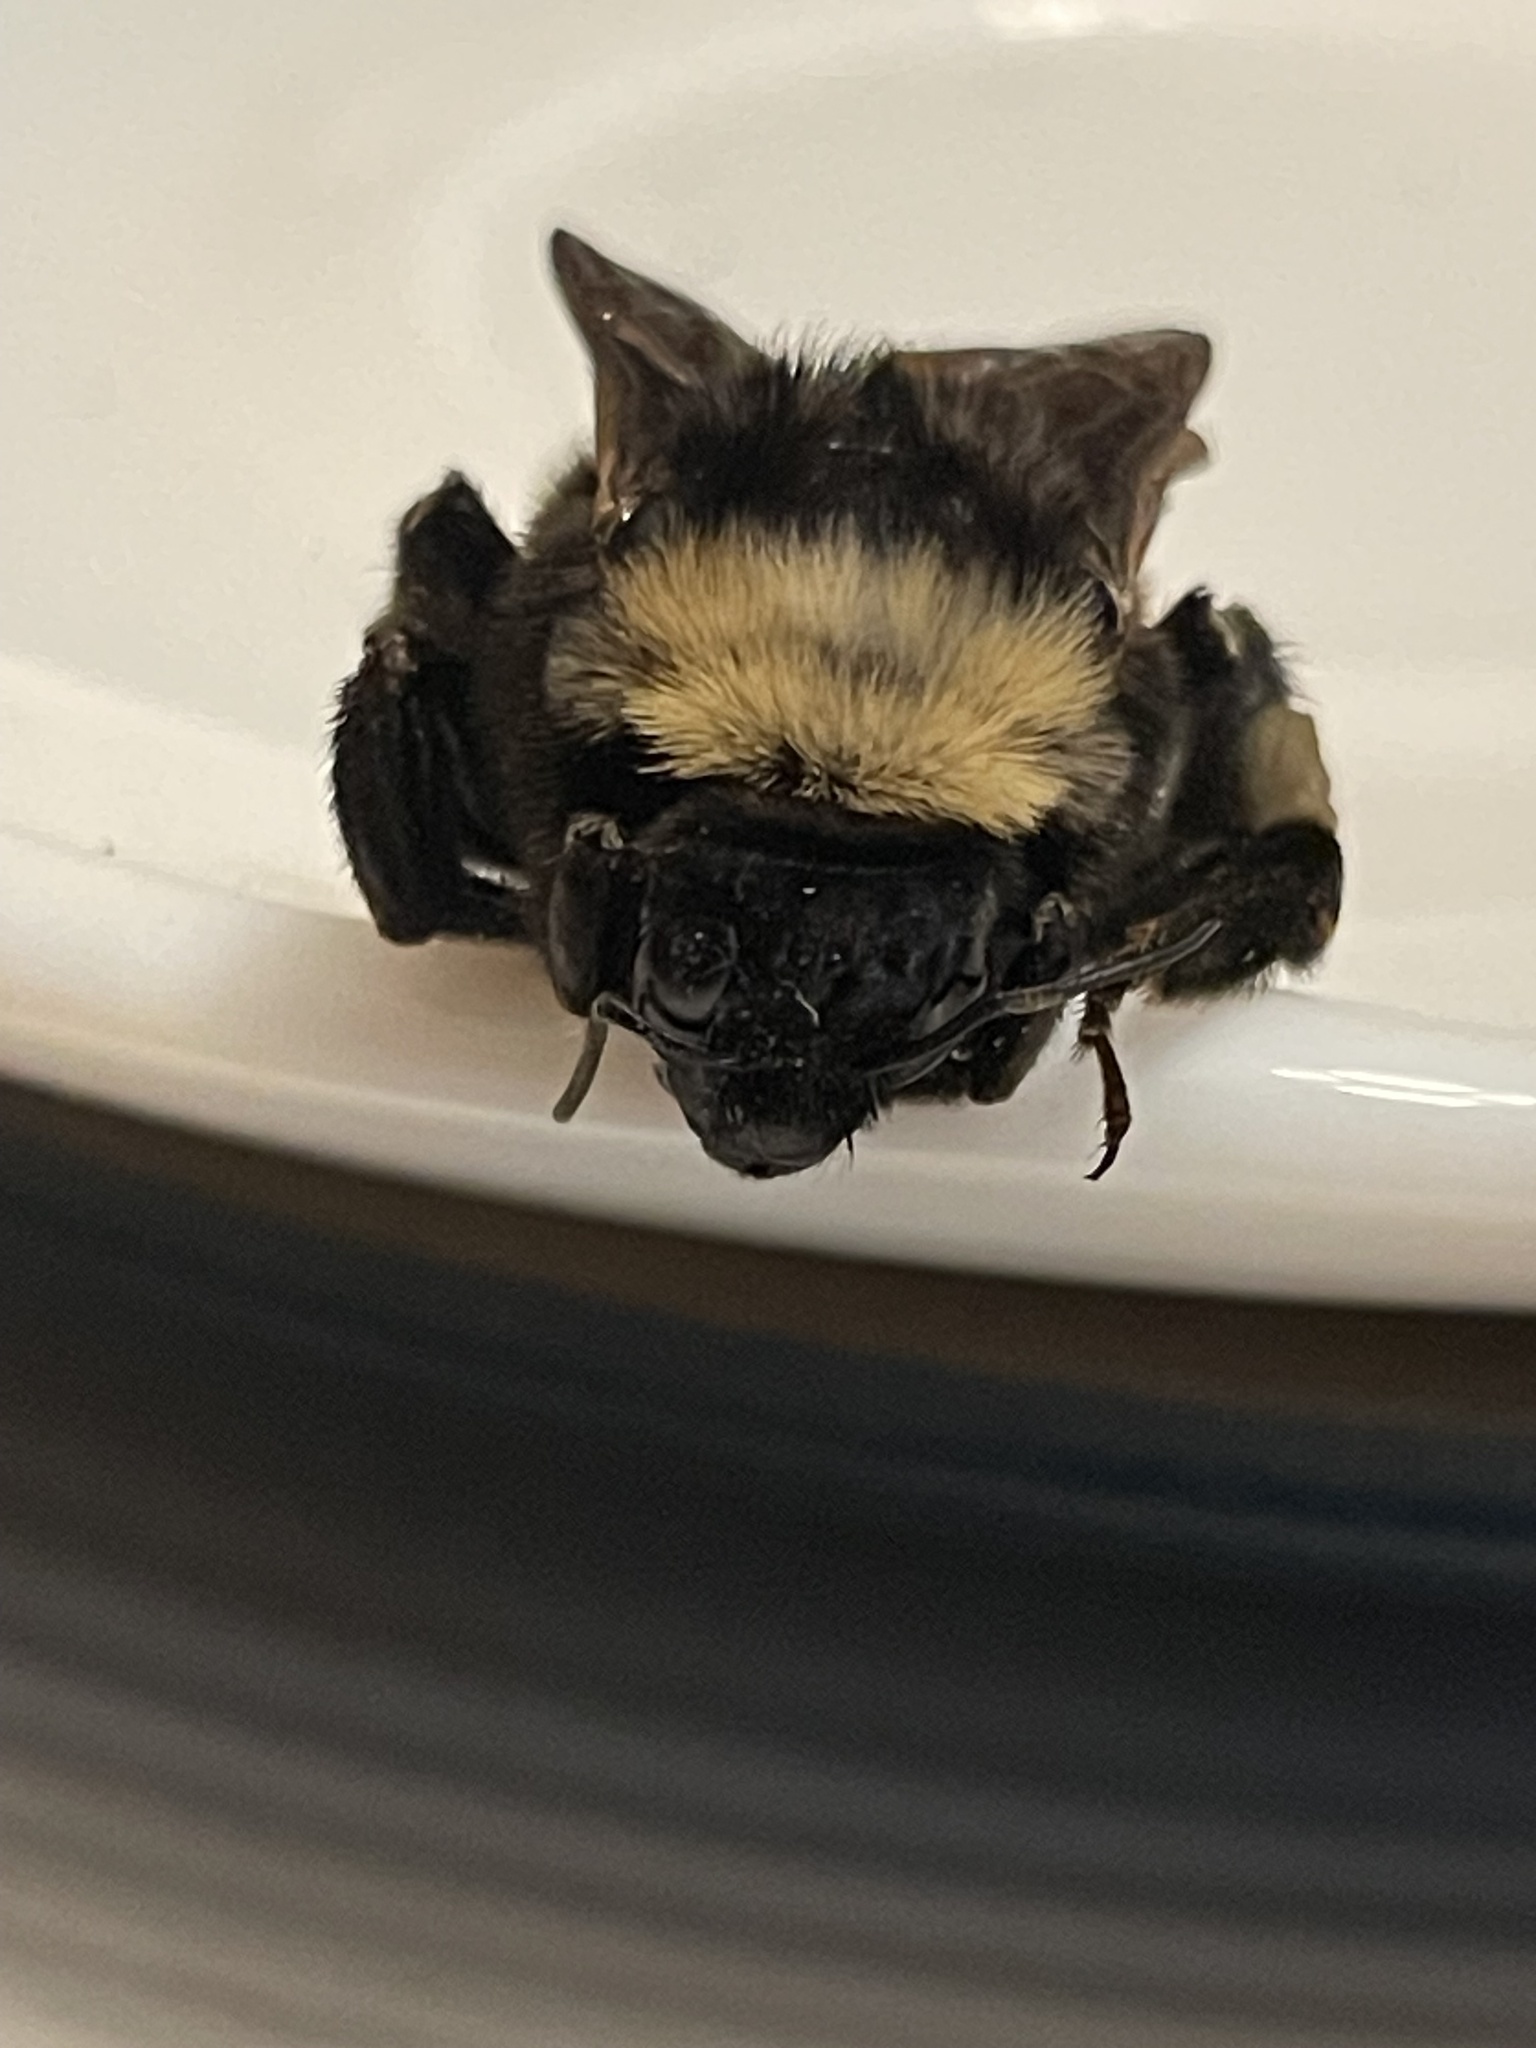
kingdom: Animalia
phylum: Arthropoda
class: Insecta
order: Hymenoptera
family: Apidae
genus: Bombus
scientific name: Bombus pensylvanicus
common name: Bumble bee
